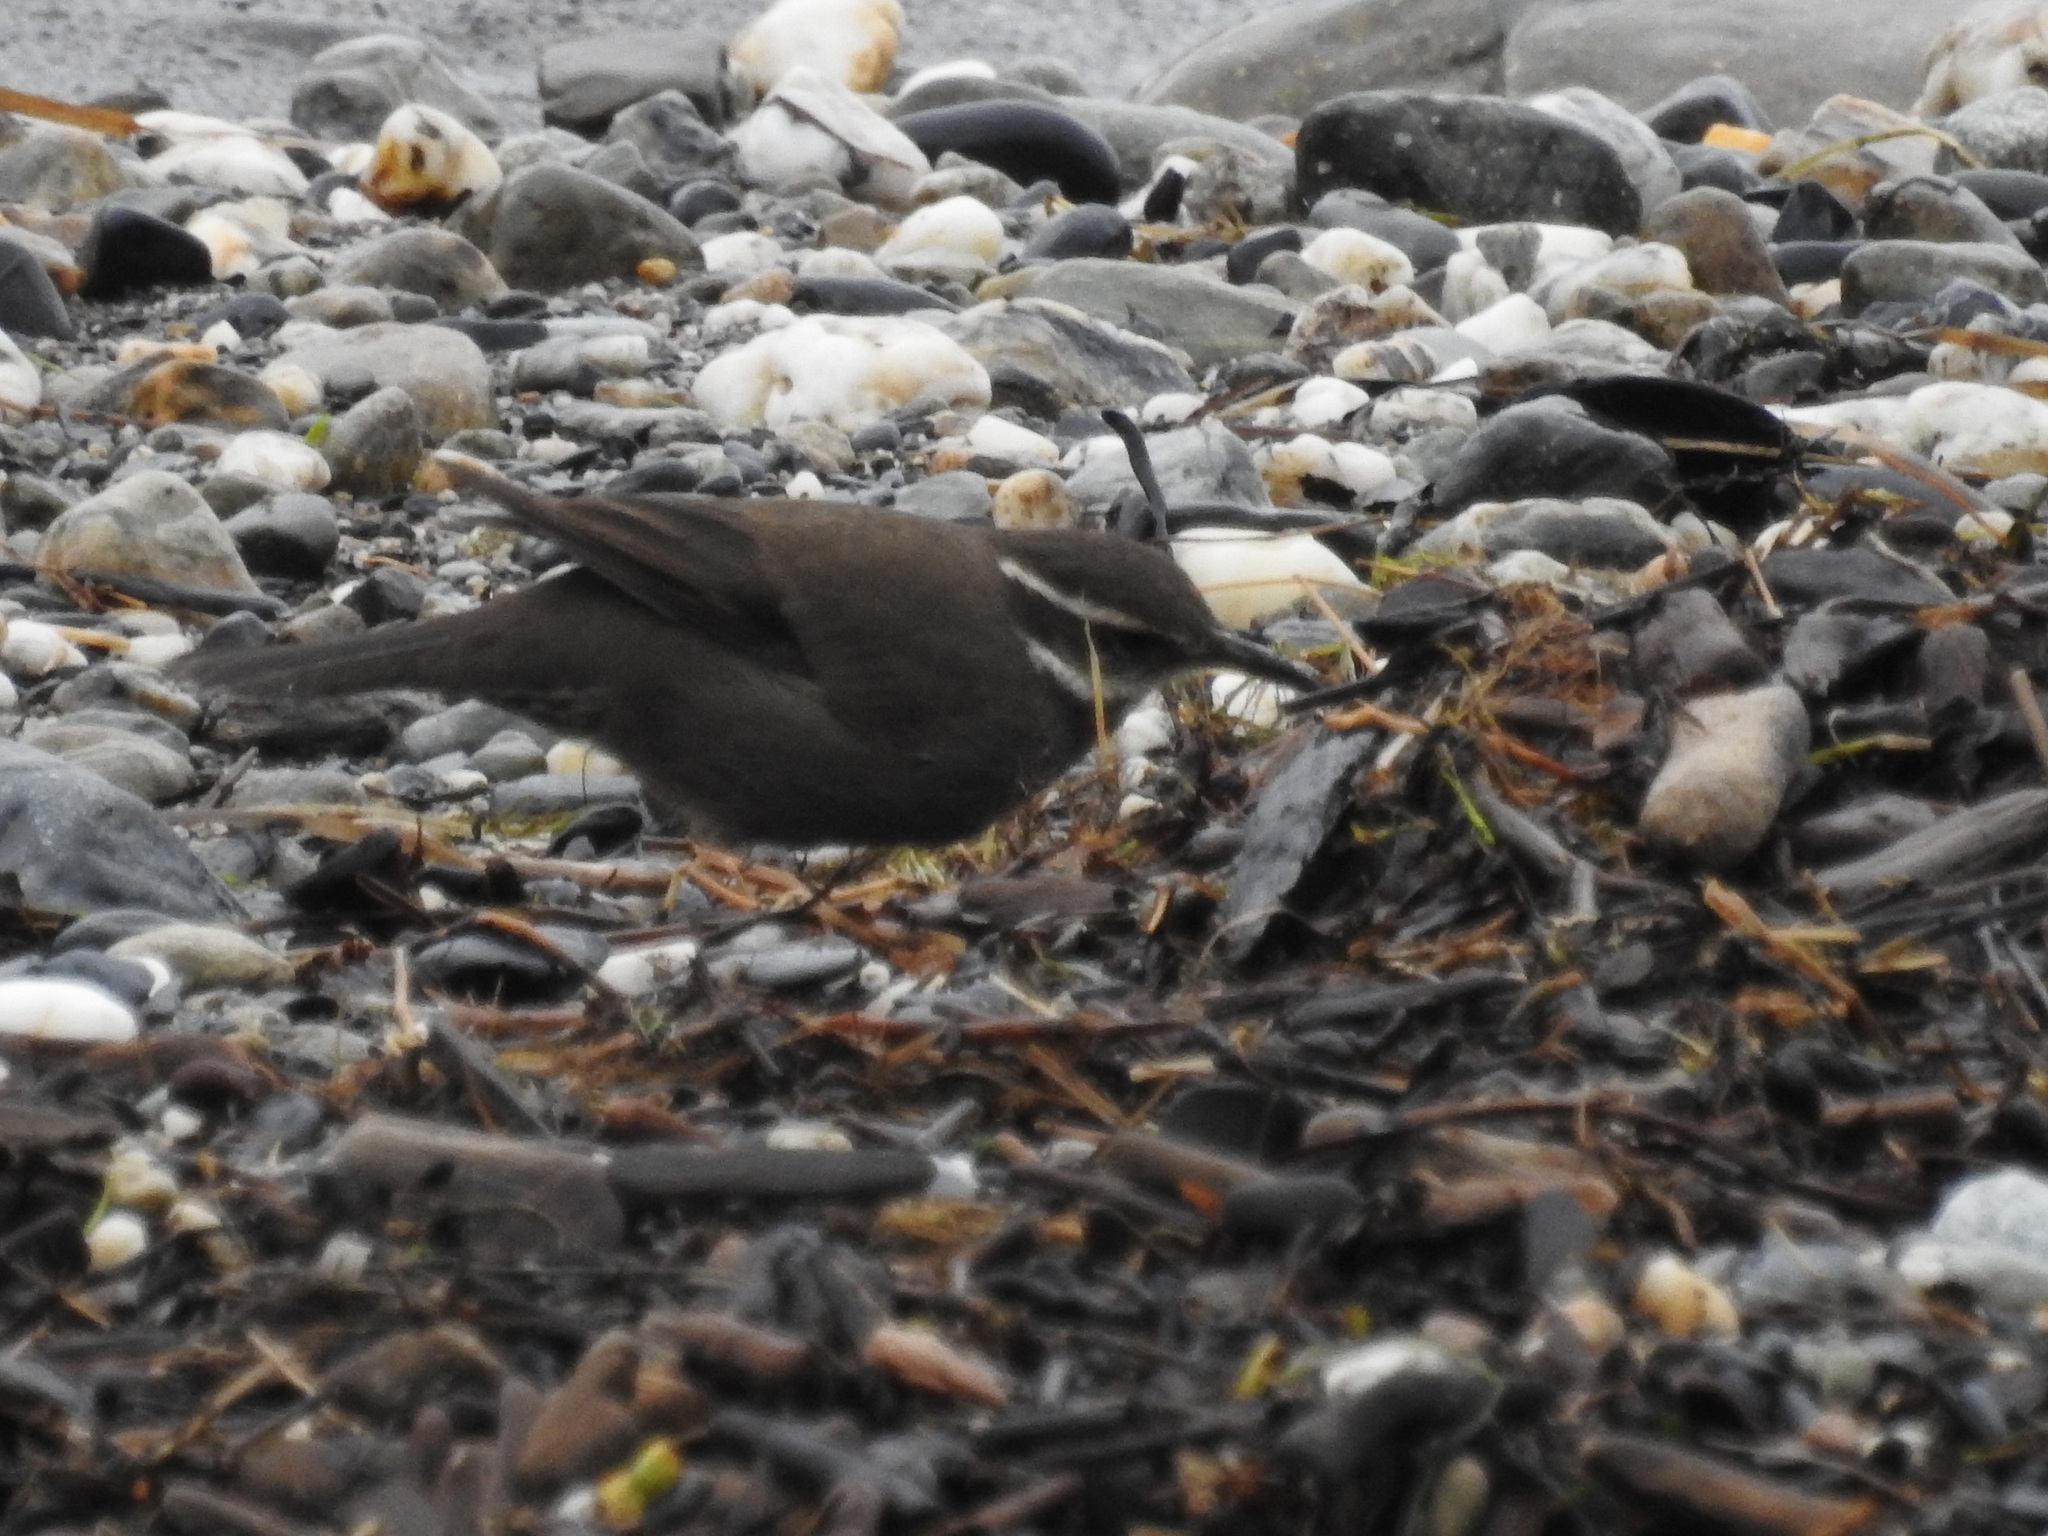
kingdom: Animalia
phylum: Chordata
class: Aves
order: Passeriformes
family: Furnariidae
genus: Cinclodes
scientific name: Cinclodes patagonicus
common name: Dark-bellied cinclodes
